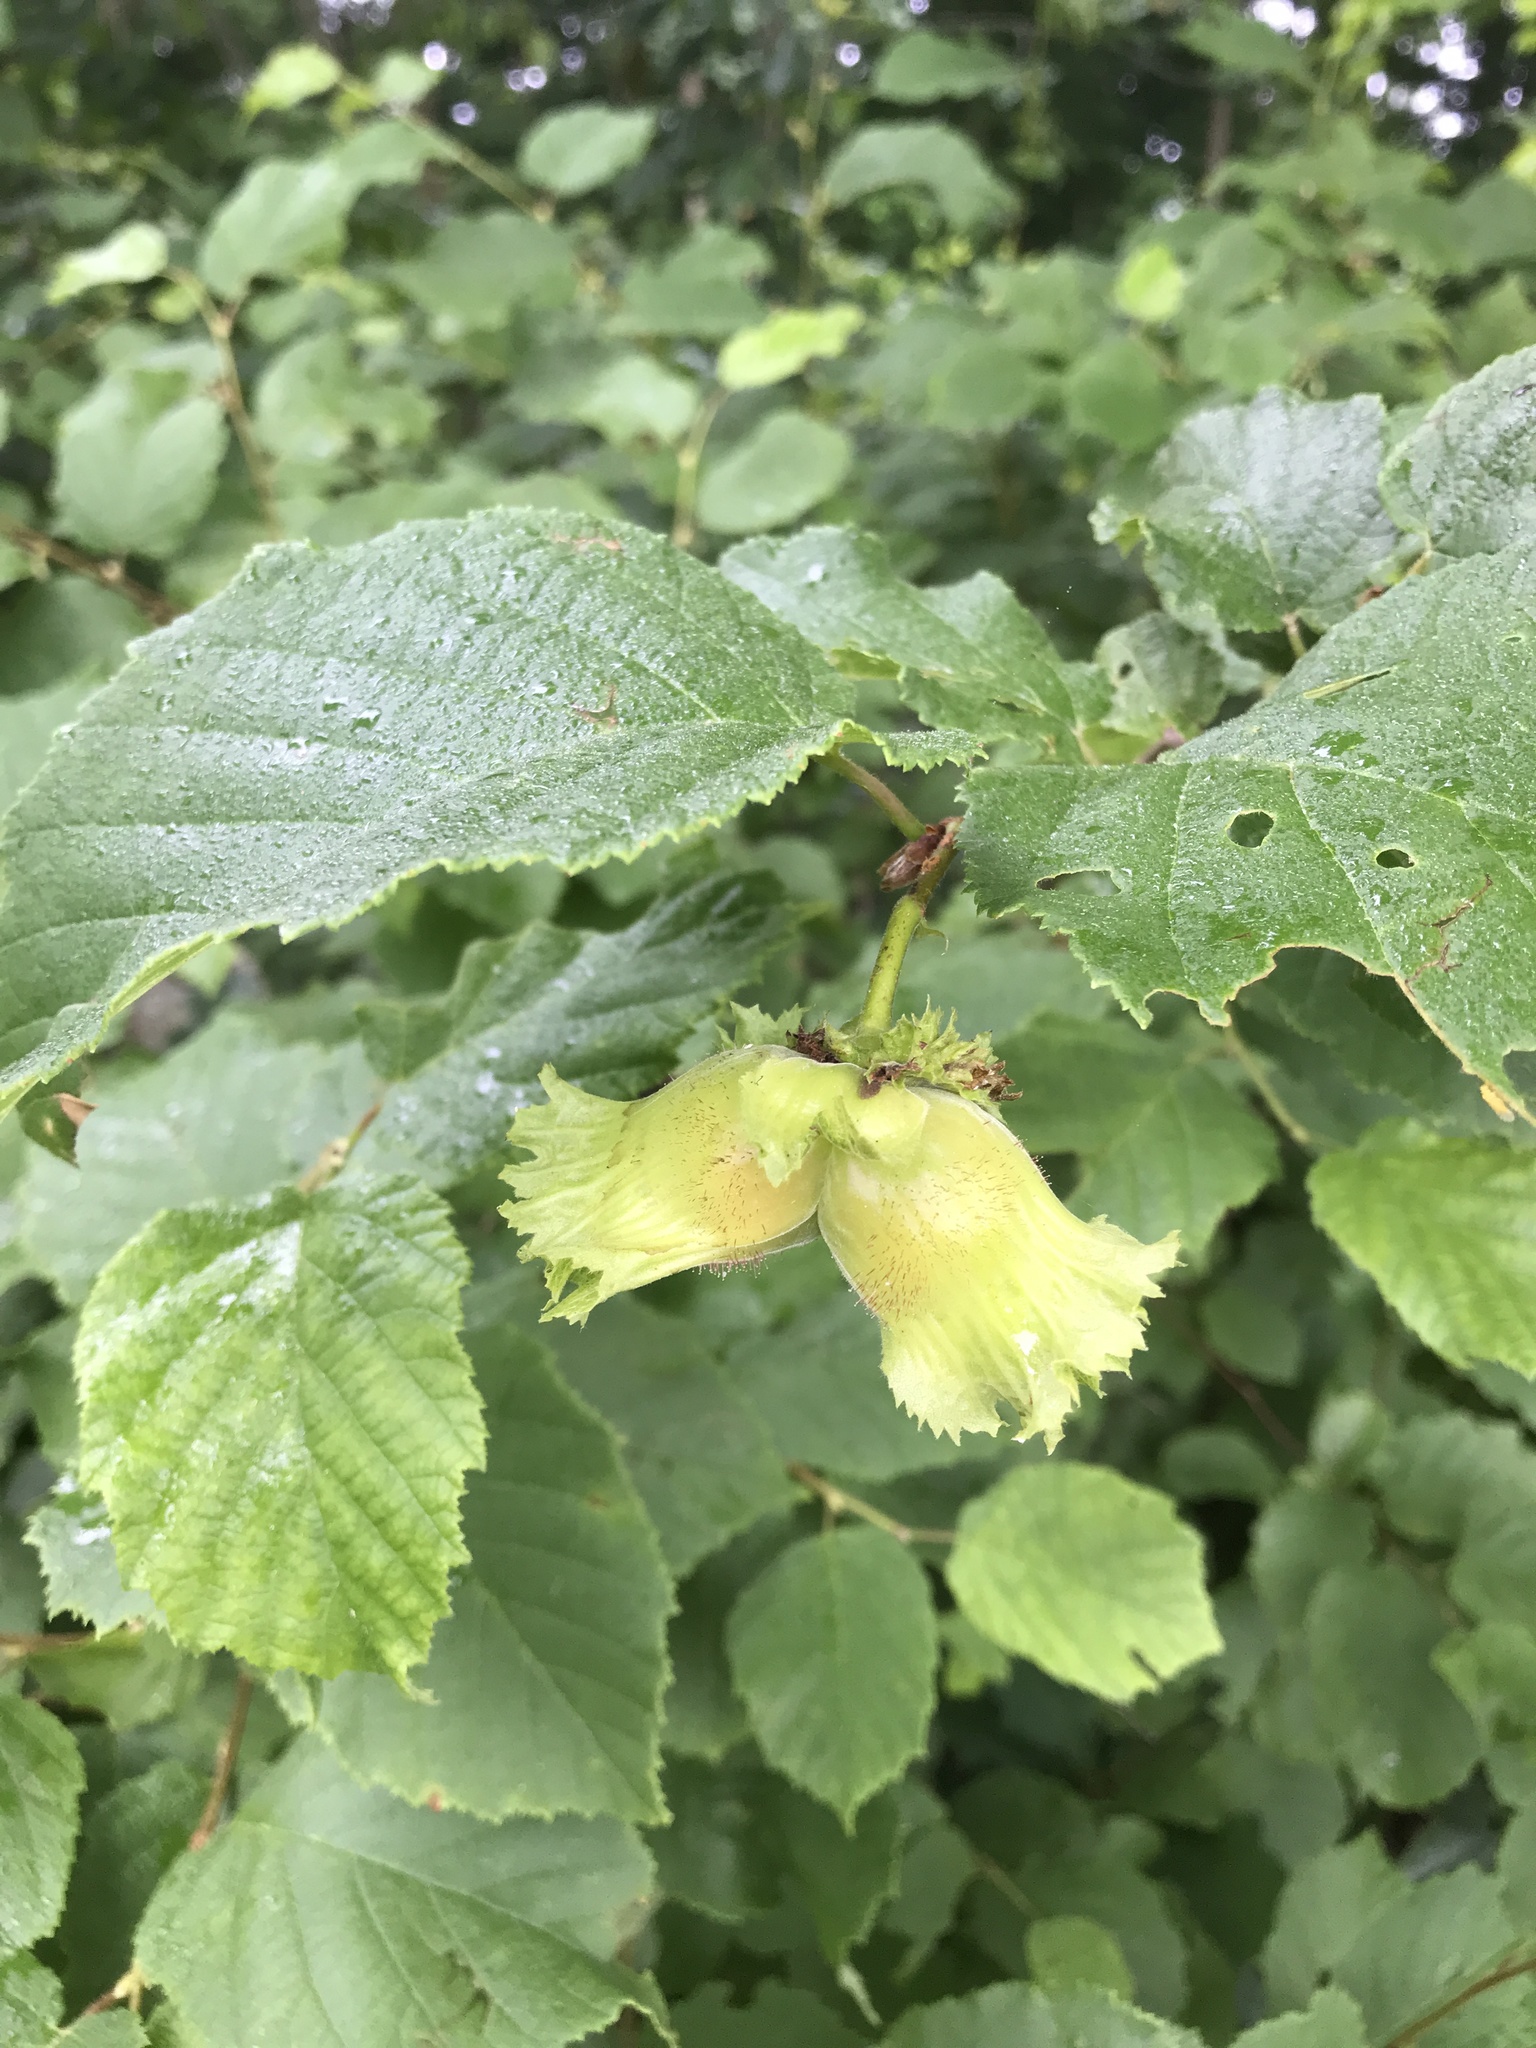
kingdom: Plantae
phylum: Tracheophyta
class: Magnoliopsida
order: Fagales
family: Betulaceae
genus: Corylus
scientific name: Corylus americana
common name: American hazel
